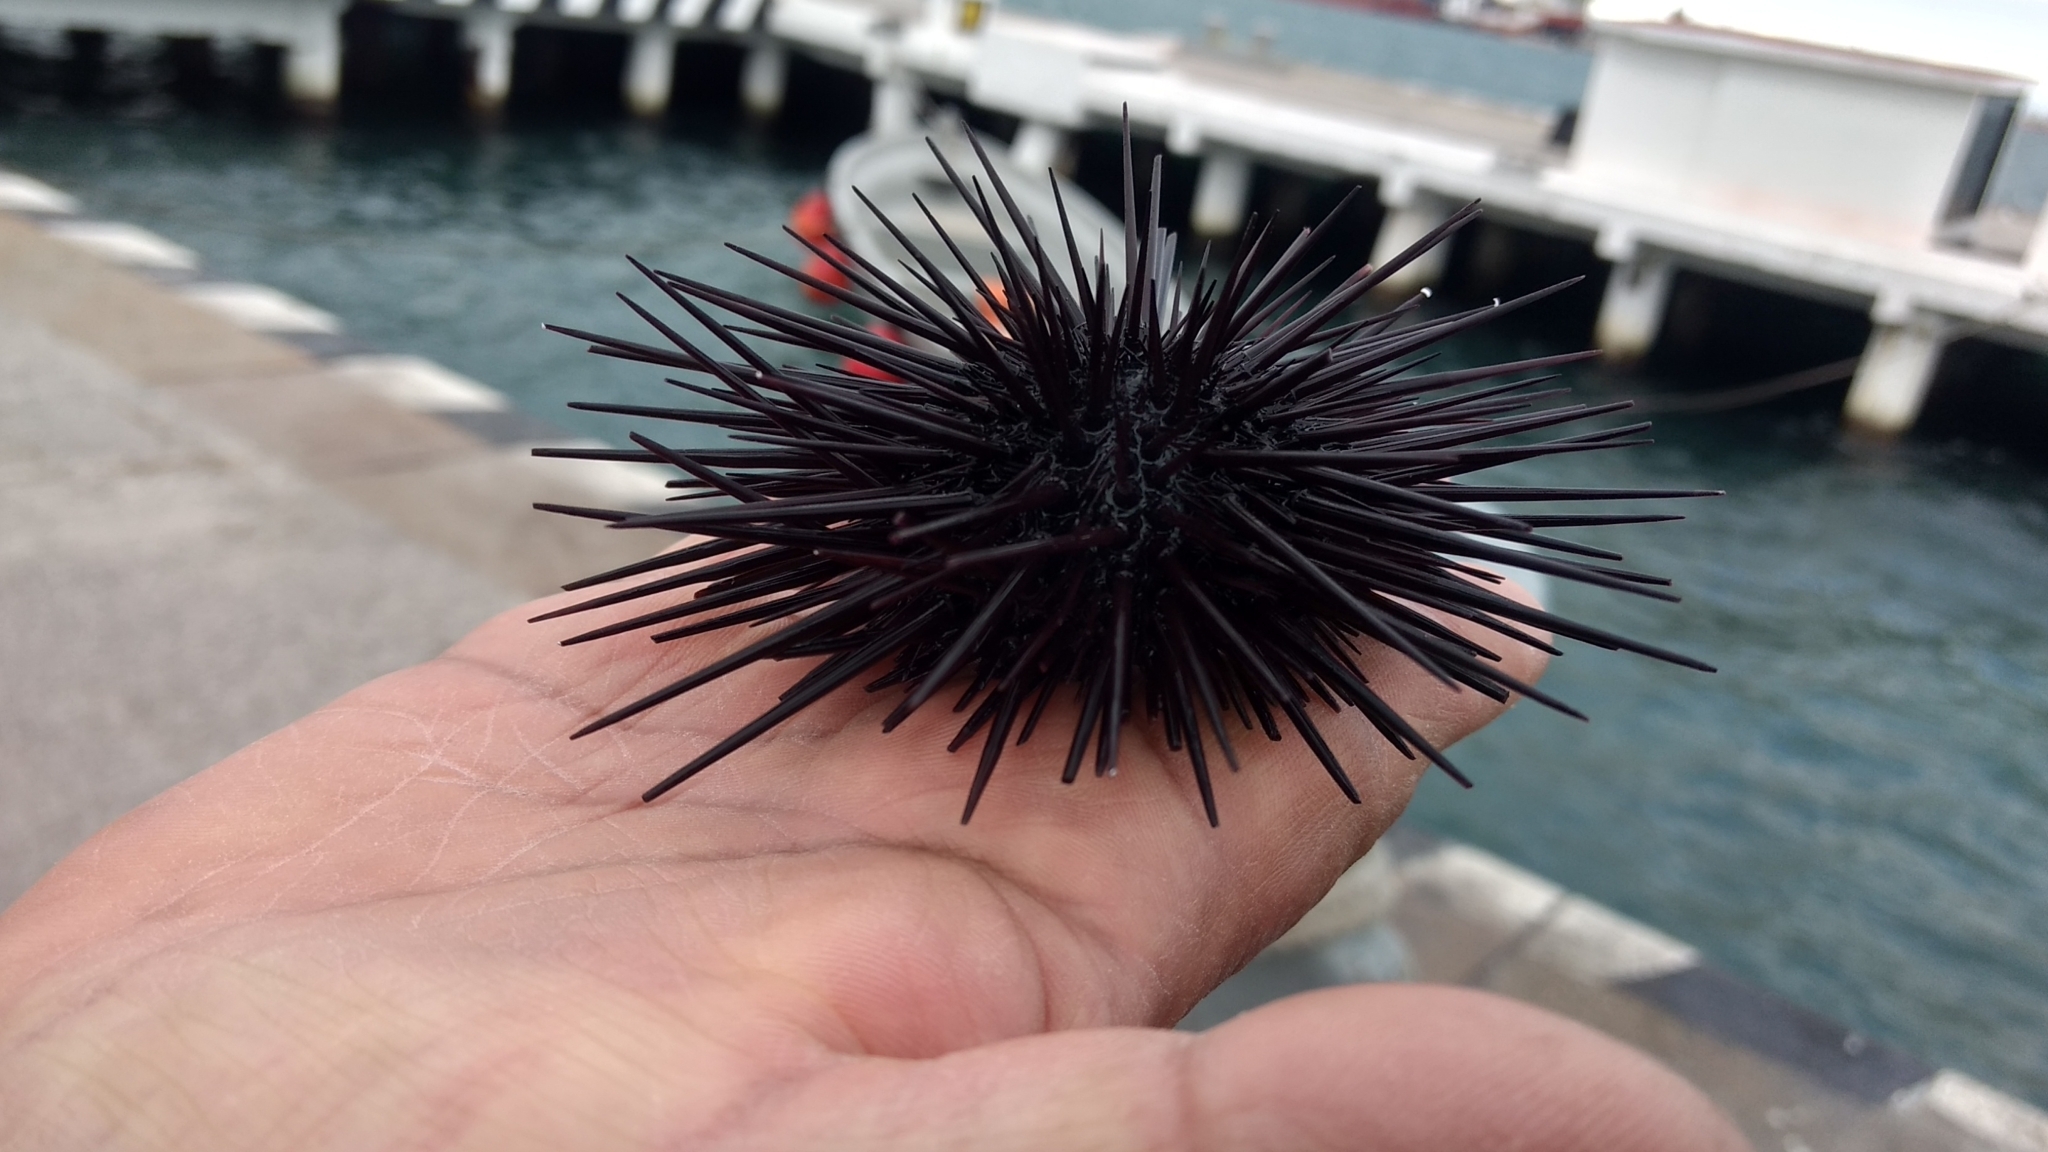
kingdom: Animalia
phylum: Echinodermata
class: Echinoidea
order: Camarodonta
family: Echinometridae
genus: Echinometra
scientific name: Echinometra lucunter
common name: Rock urchin
